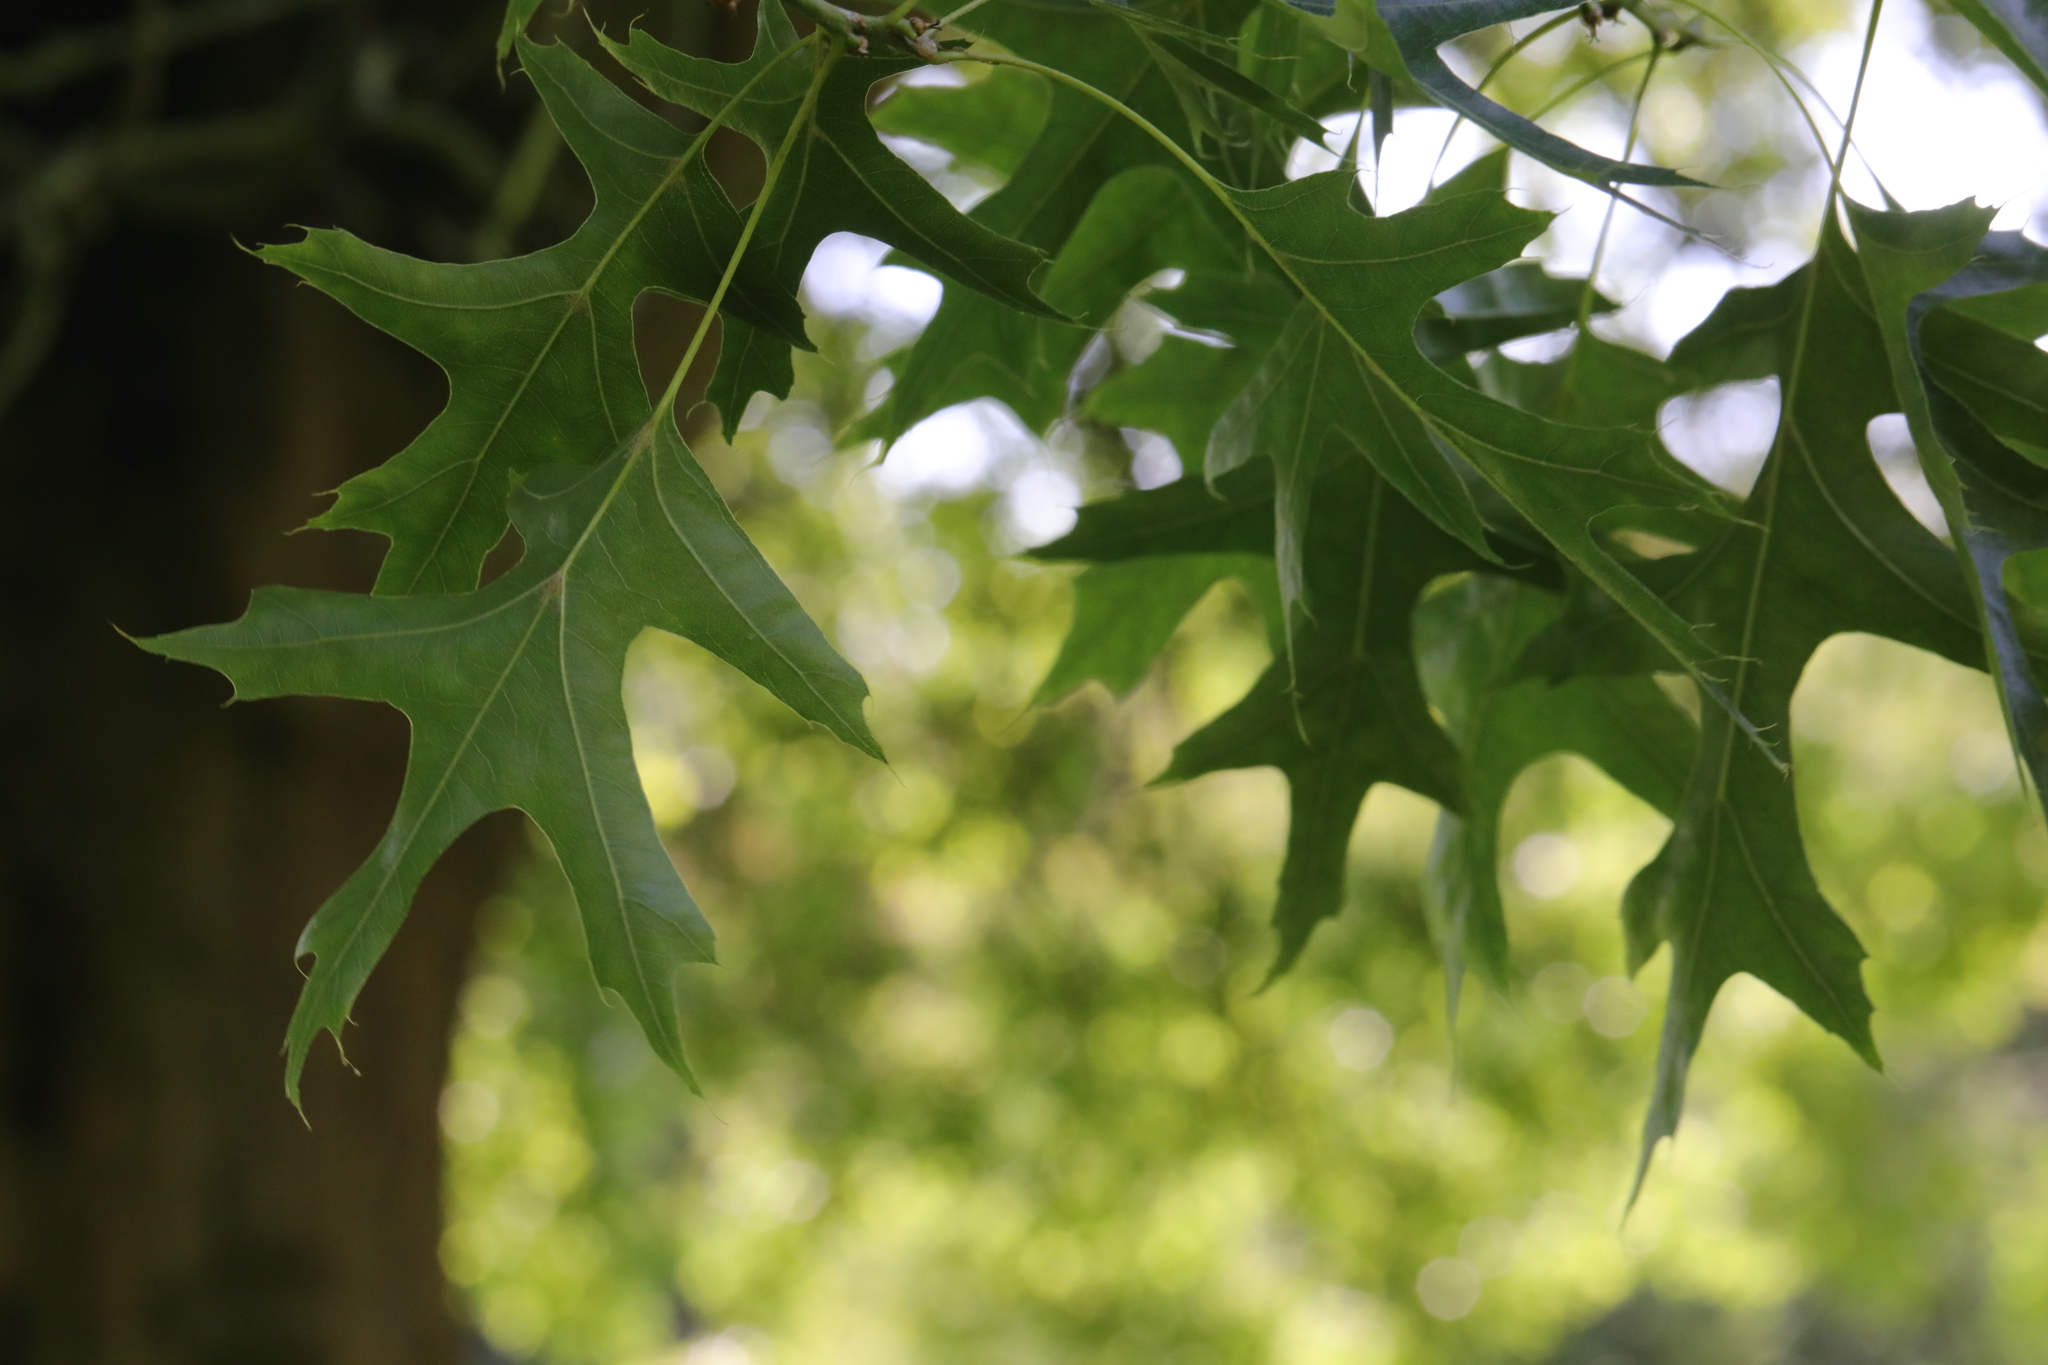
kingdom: Plantae
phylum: Tracheophyta
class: Magnoliopsida
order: Fagales
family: Fagaceae
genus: Quercus
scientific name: Quercus rubra
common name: Red oak
